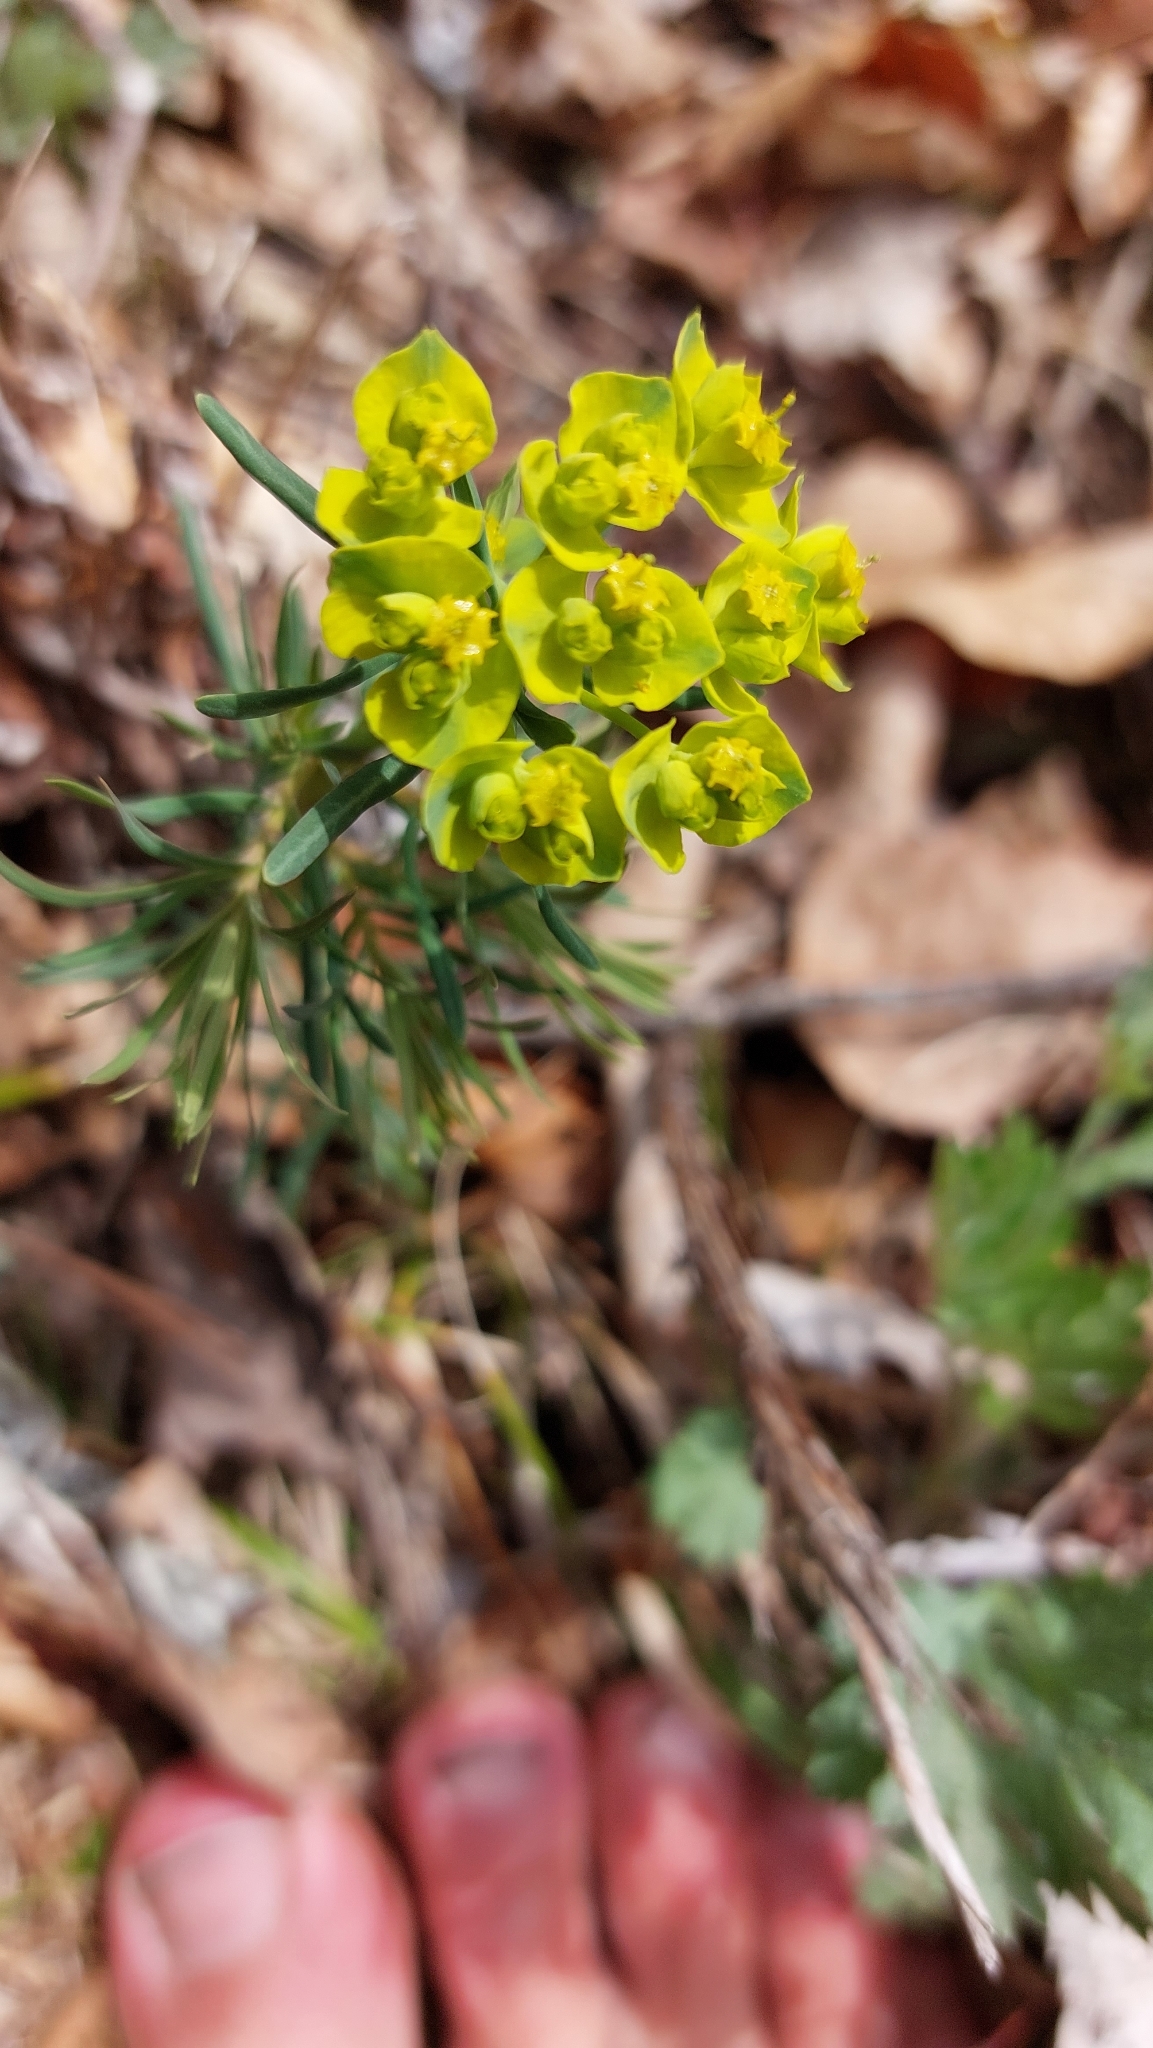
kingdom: Plantae
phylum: Tracheophyta
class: Magnoliopsida
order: Malpighiales
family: Euphorbiaceae
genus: Euphorbia
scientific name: Euphorbia cyparissias
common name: Cypress spurge
